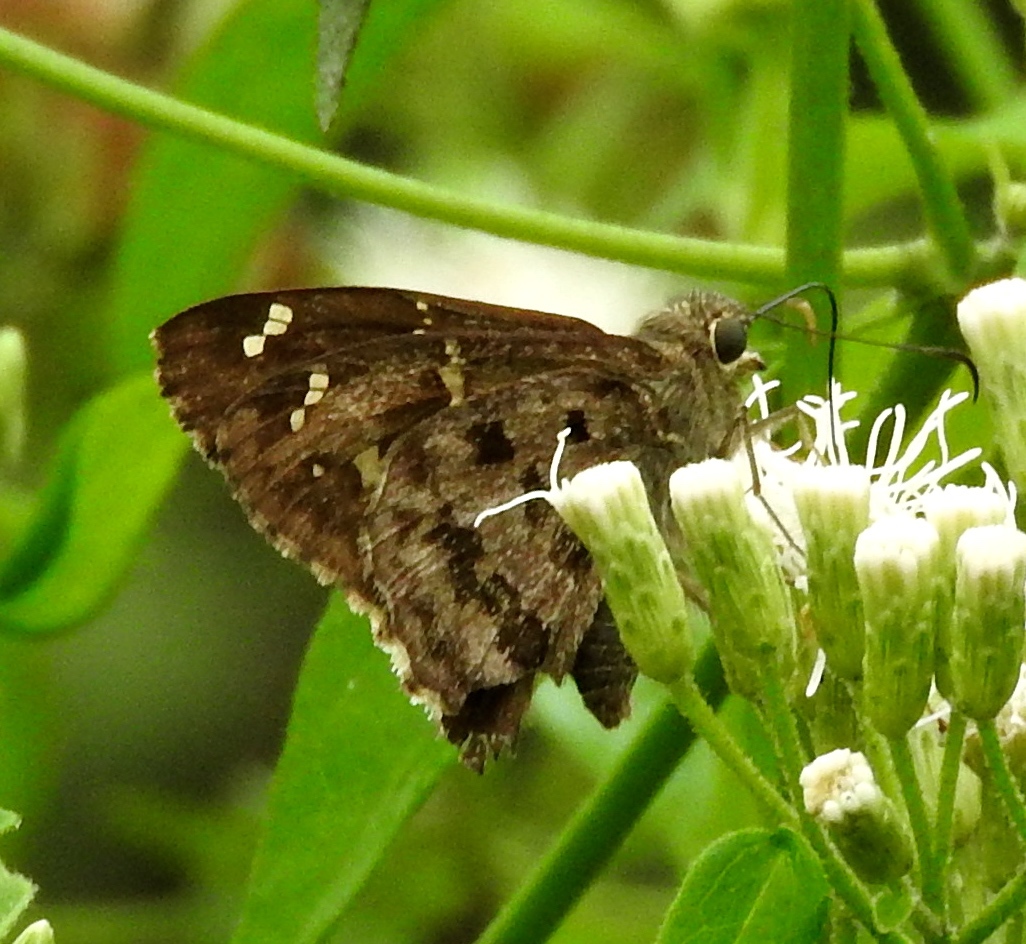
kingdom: Animalia
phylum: Arthropoda
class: Insecta
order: Lepidoptera
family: Hesperiidae
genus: Thorybes
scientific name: Thorybes
